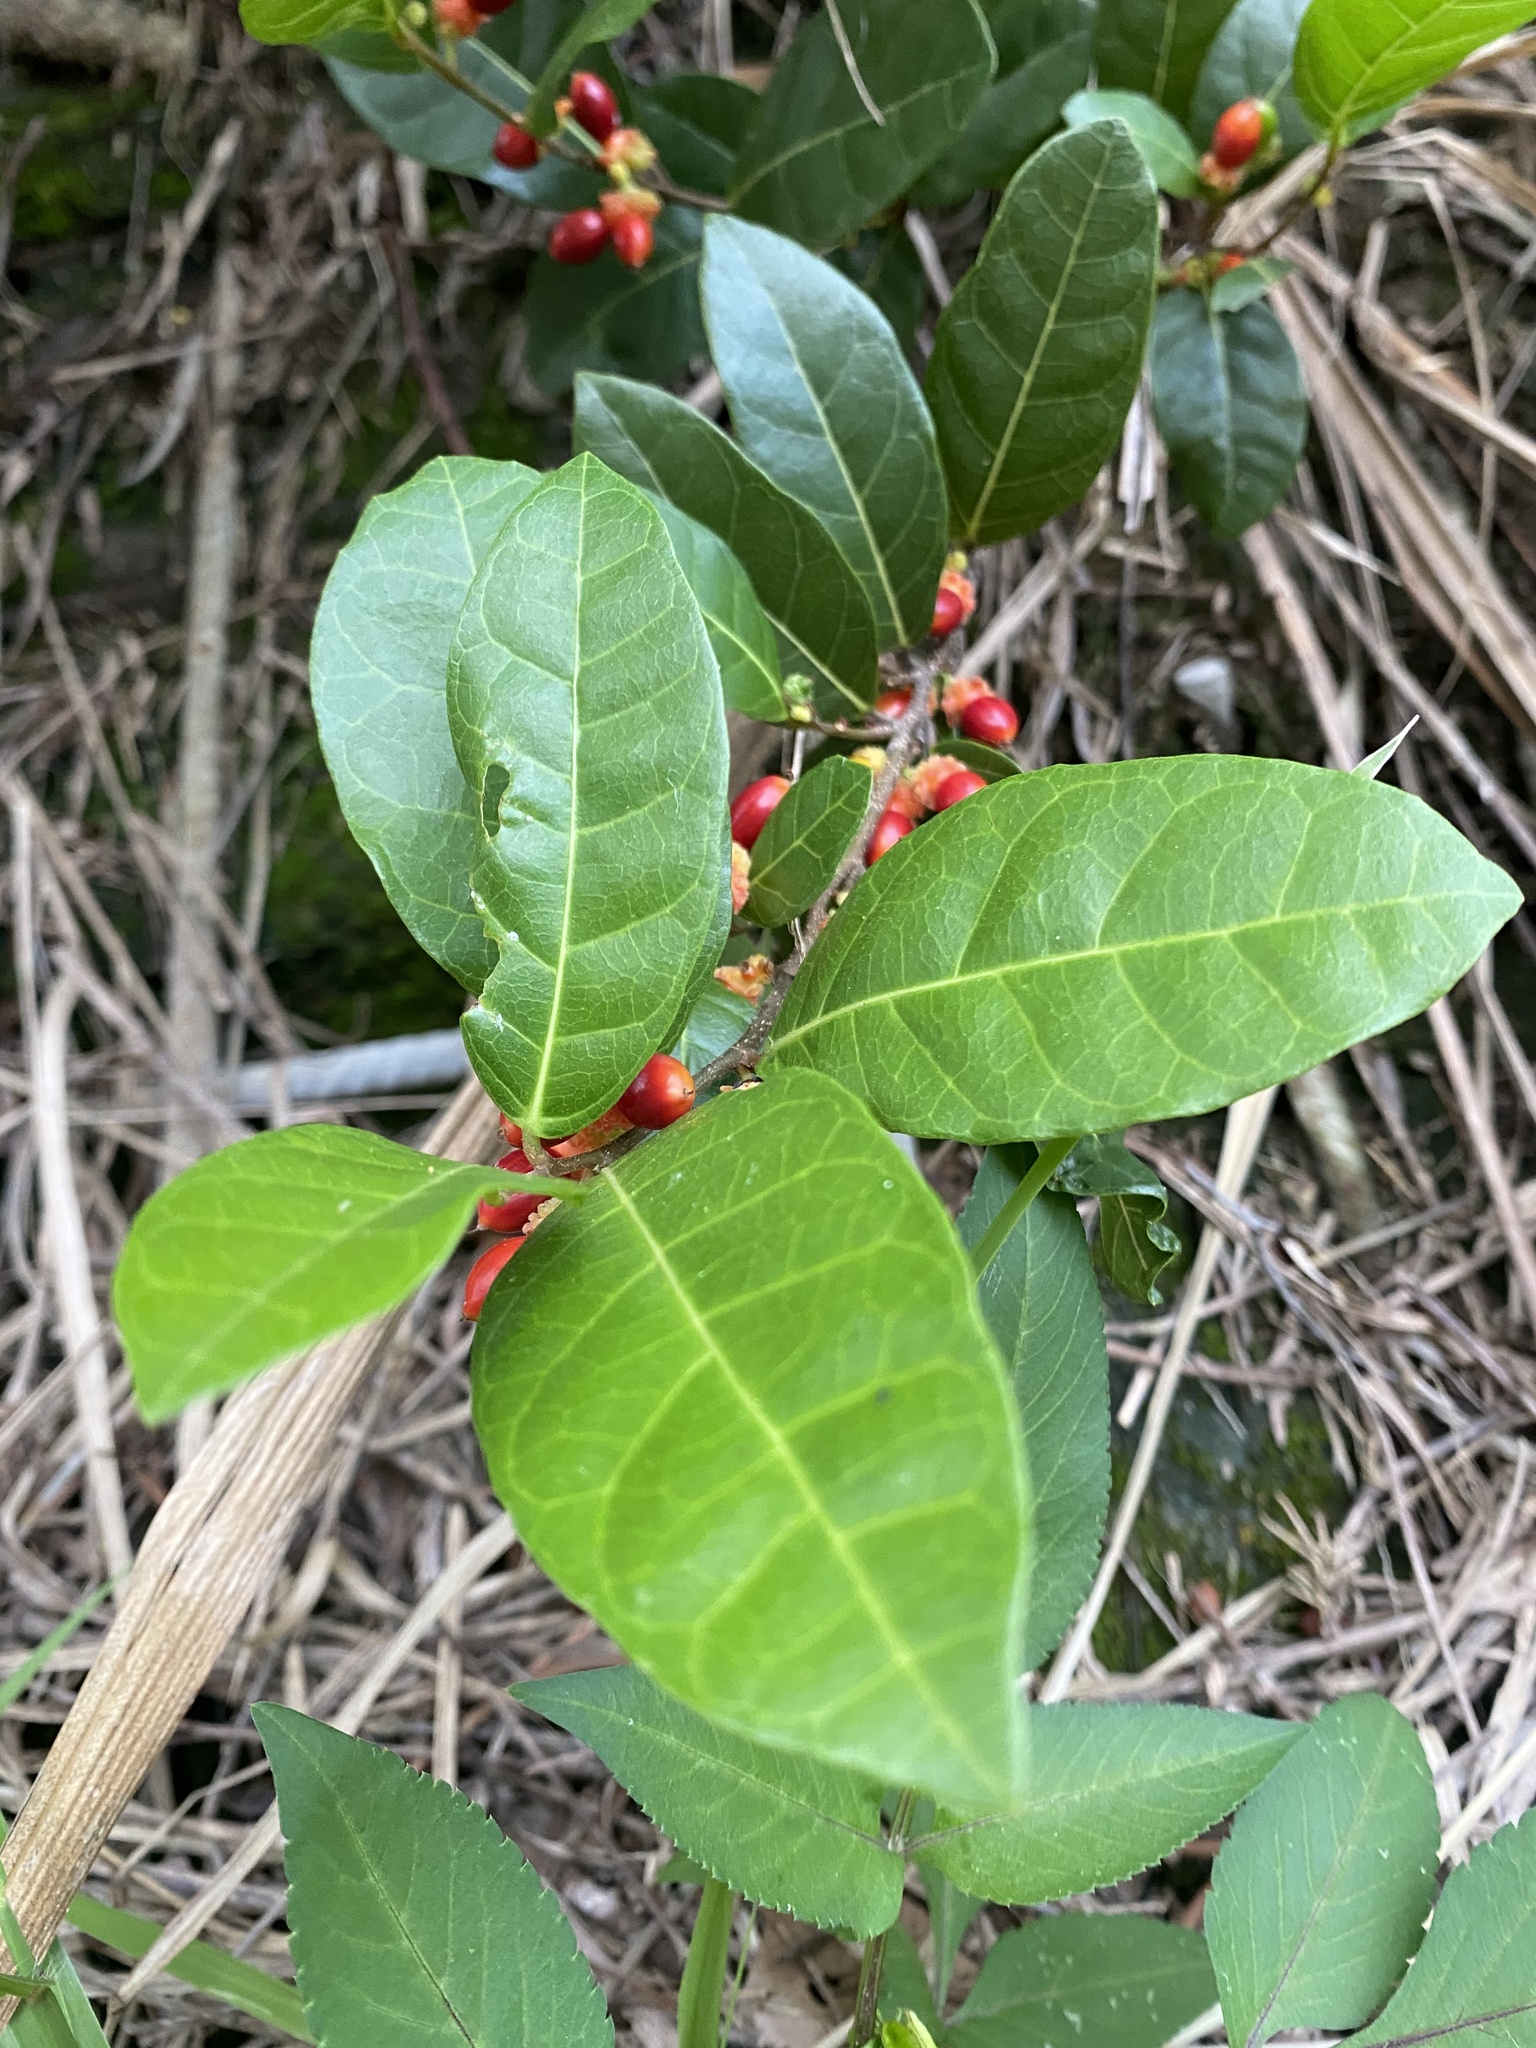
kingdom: Plantae
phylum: Tracheophyta
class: Magnoliopsida
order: Rosales
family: Moraceae
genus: Malaisia
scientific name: Malaisia scandens
